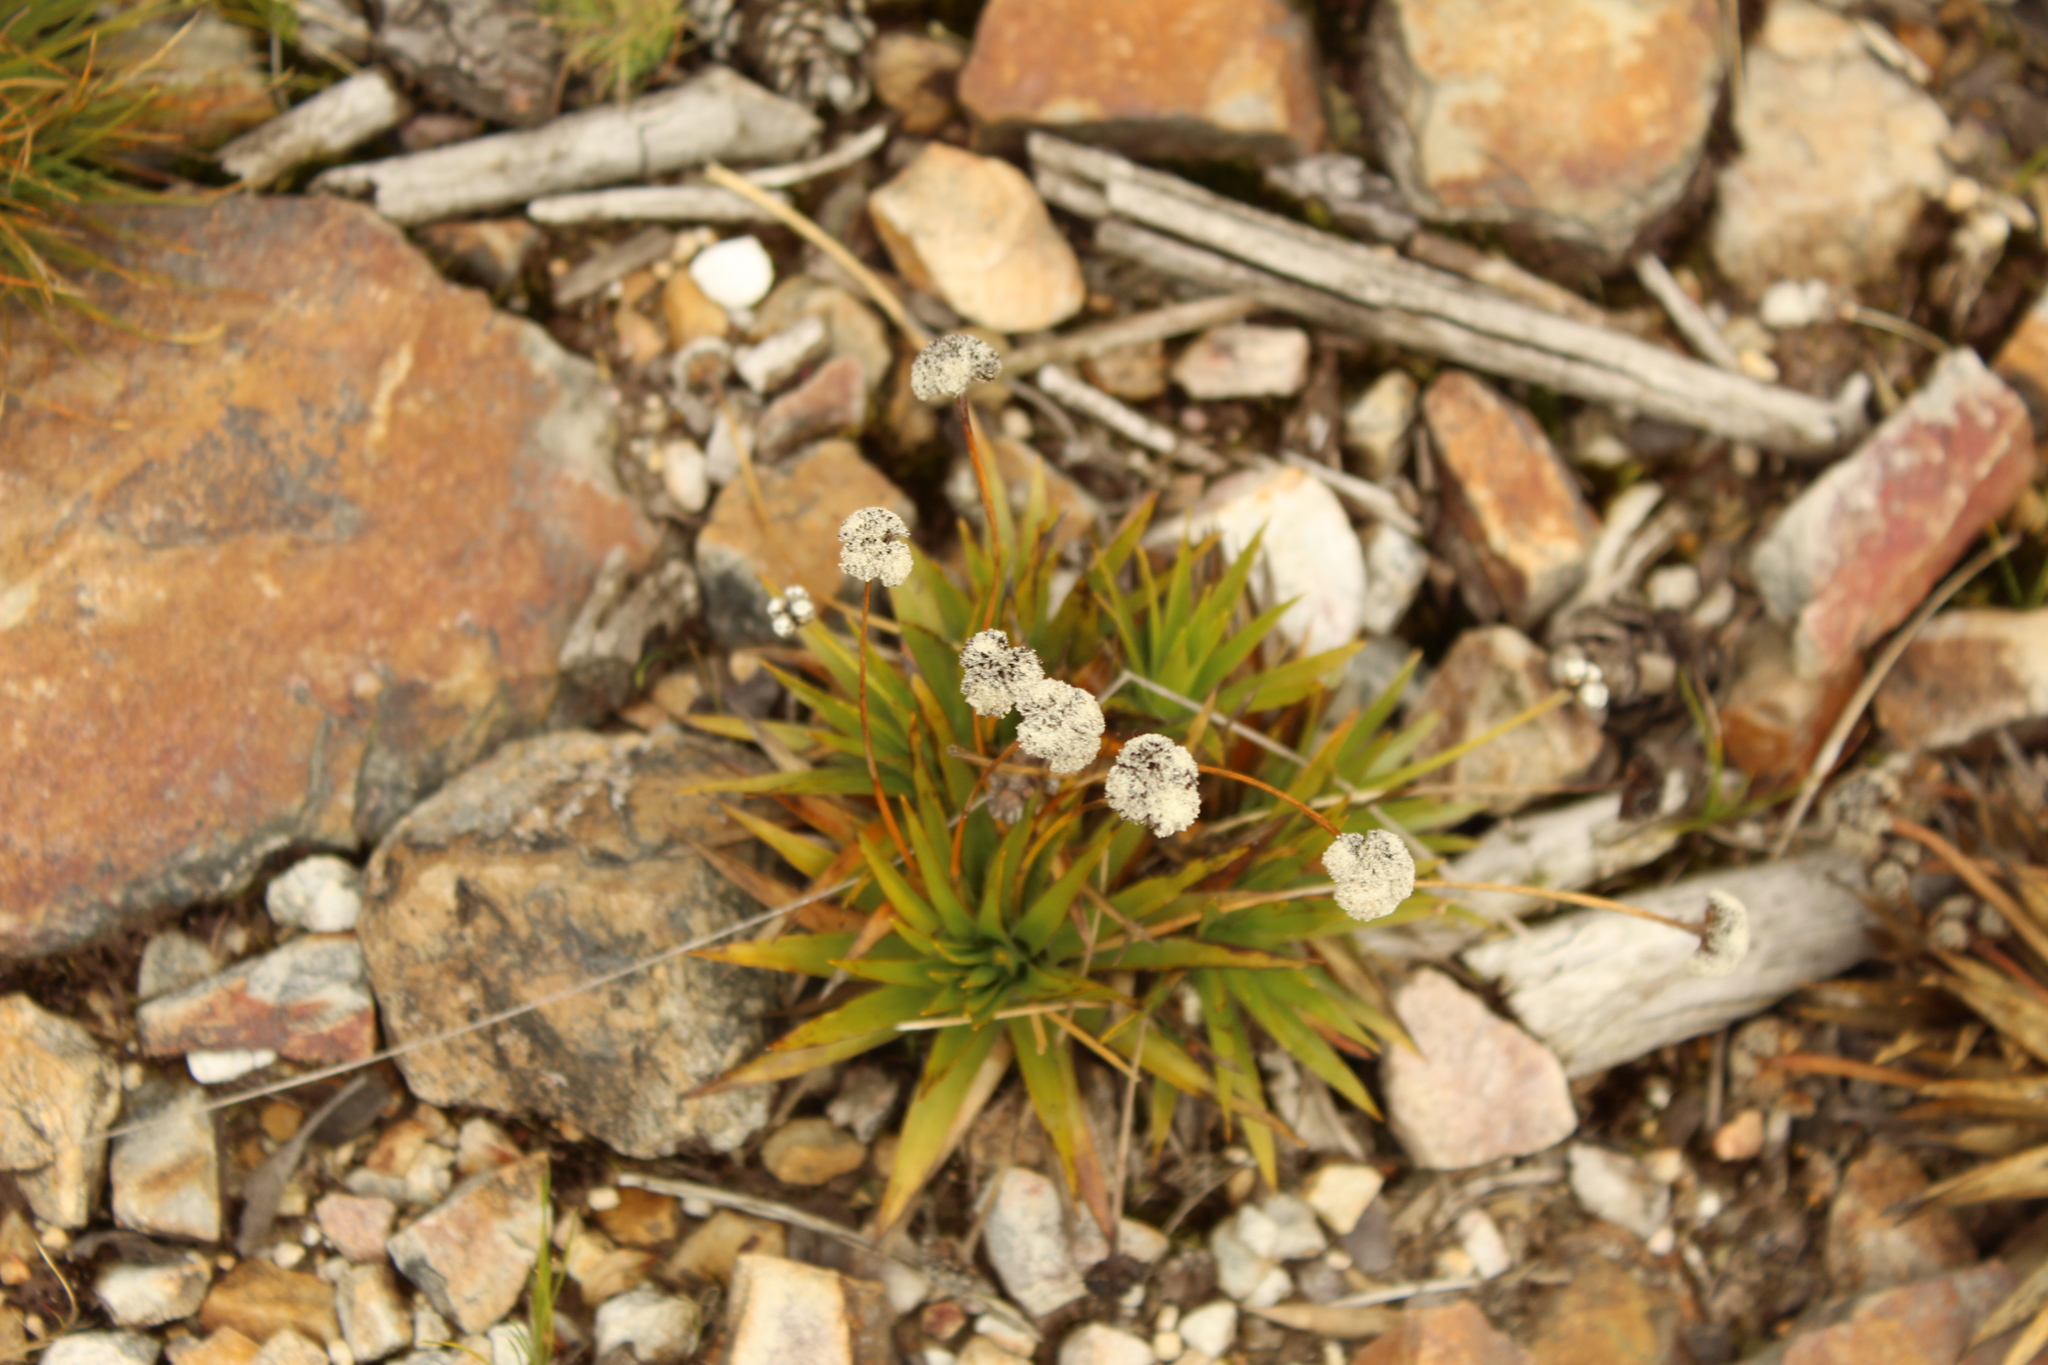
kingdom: Plantae
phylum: Tracheophyta
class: Liliopsida
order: Poales
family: Eriocaulaceae
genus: Paepalanthus
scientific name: Paepalanthus alpinus
